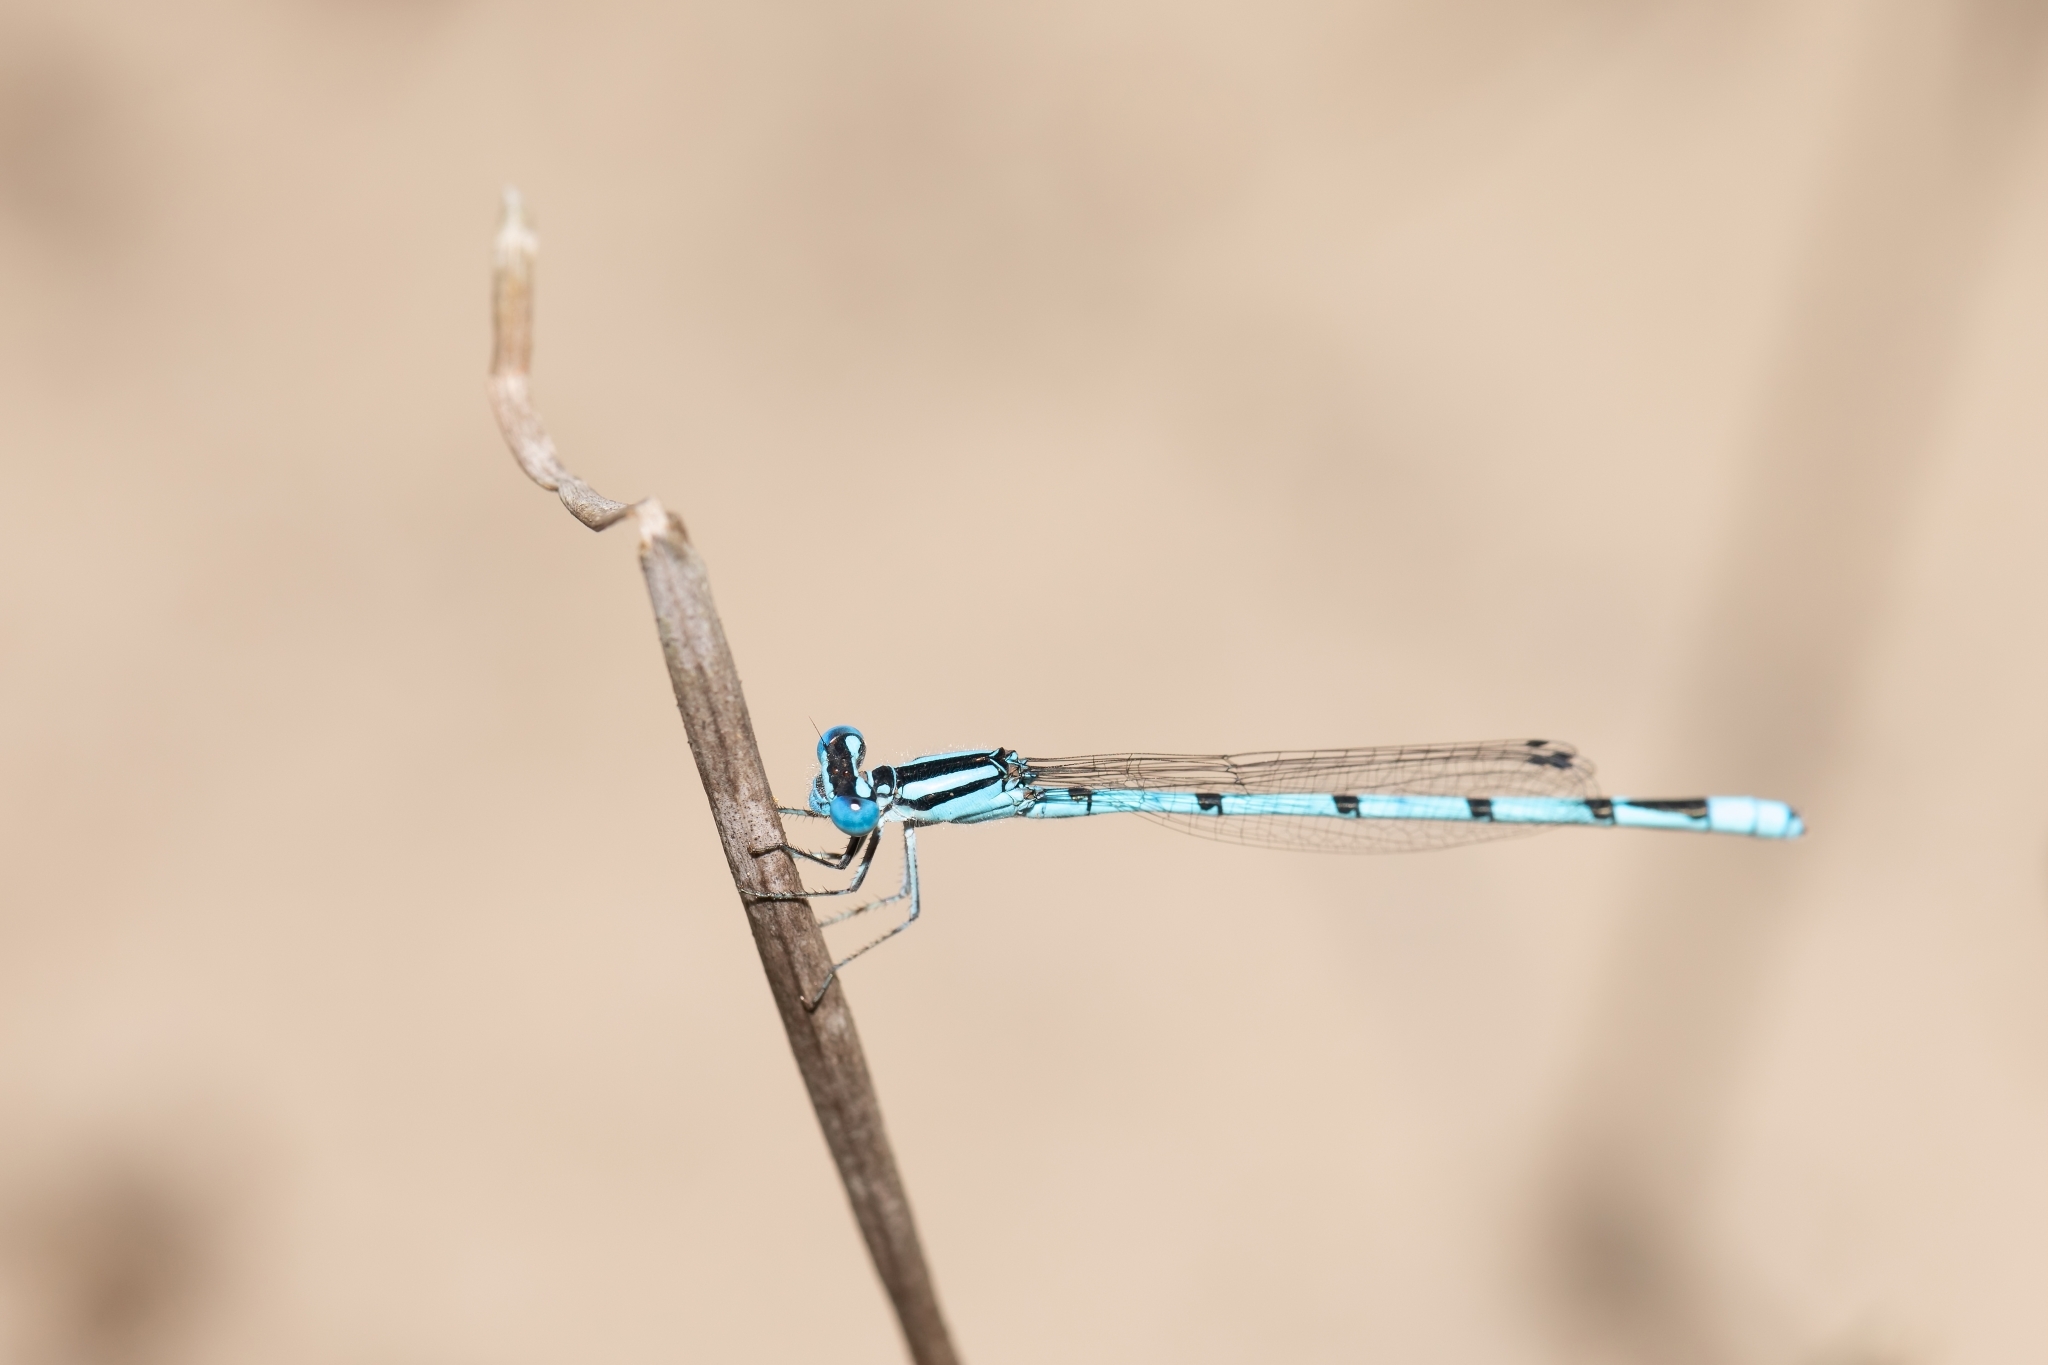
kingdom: Animalia
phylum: Arthropoda
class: Insecta
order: Odonata
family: Coenagrionidae
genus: Enallagma
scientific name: Enallagma doubledayi
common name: Atlantic bluet
